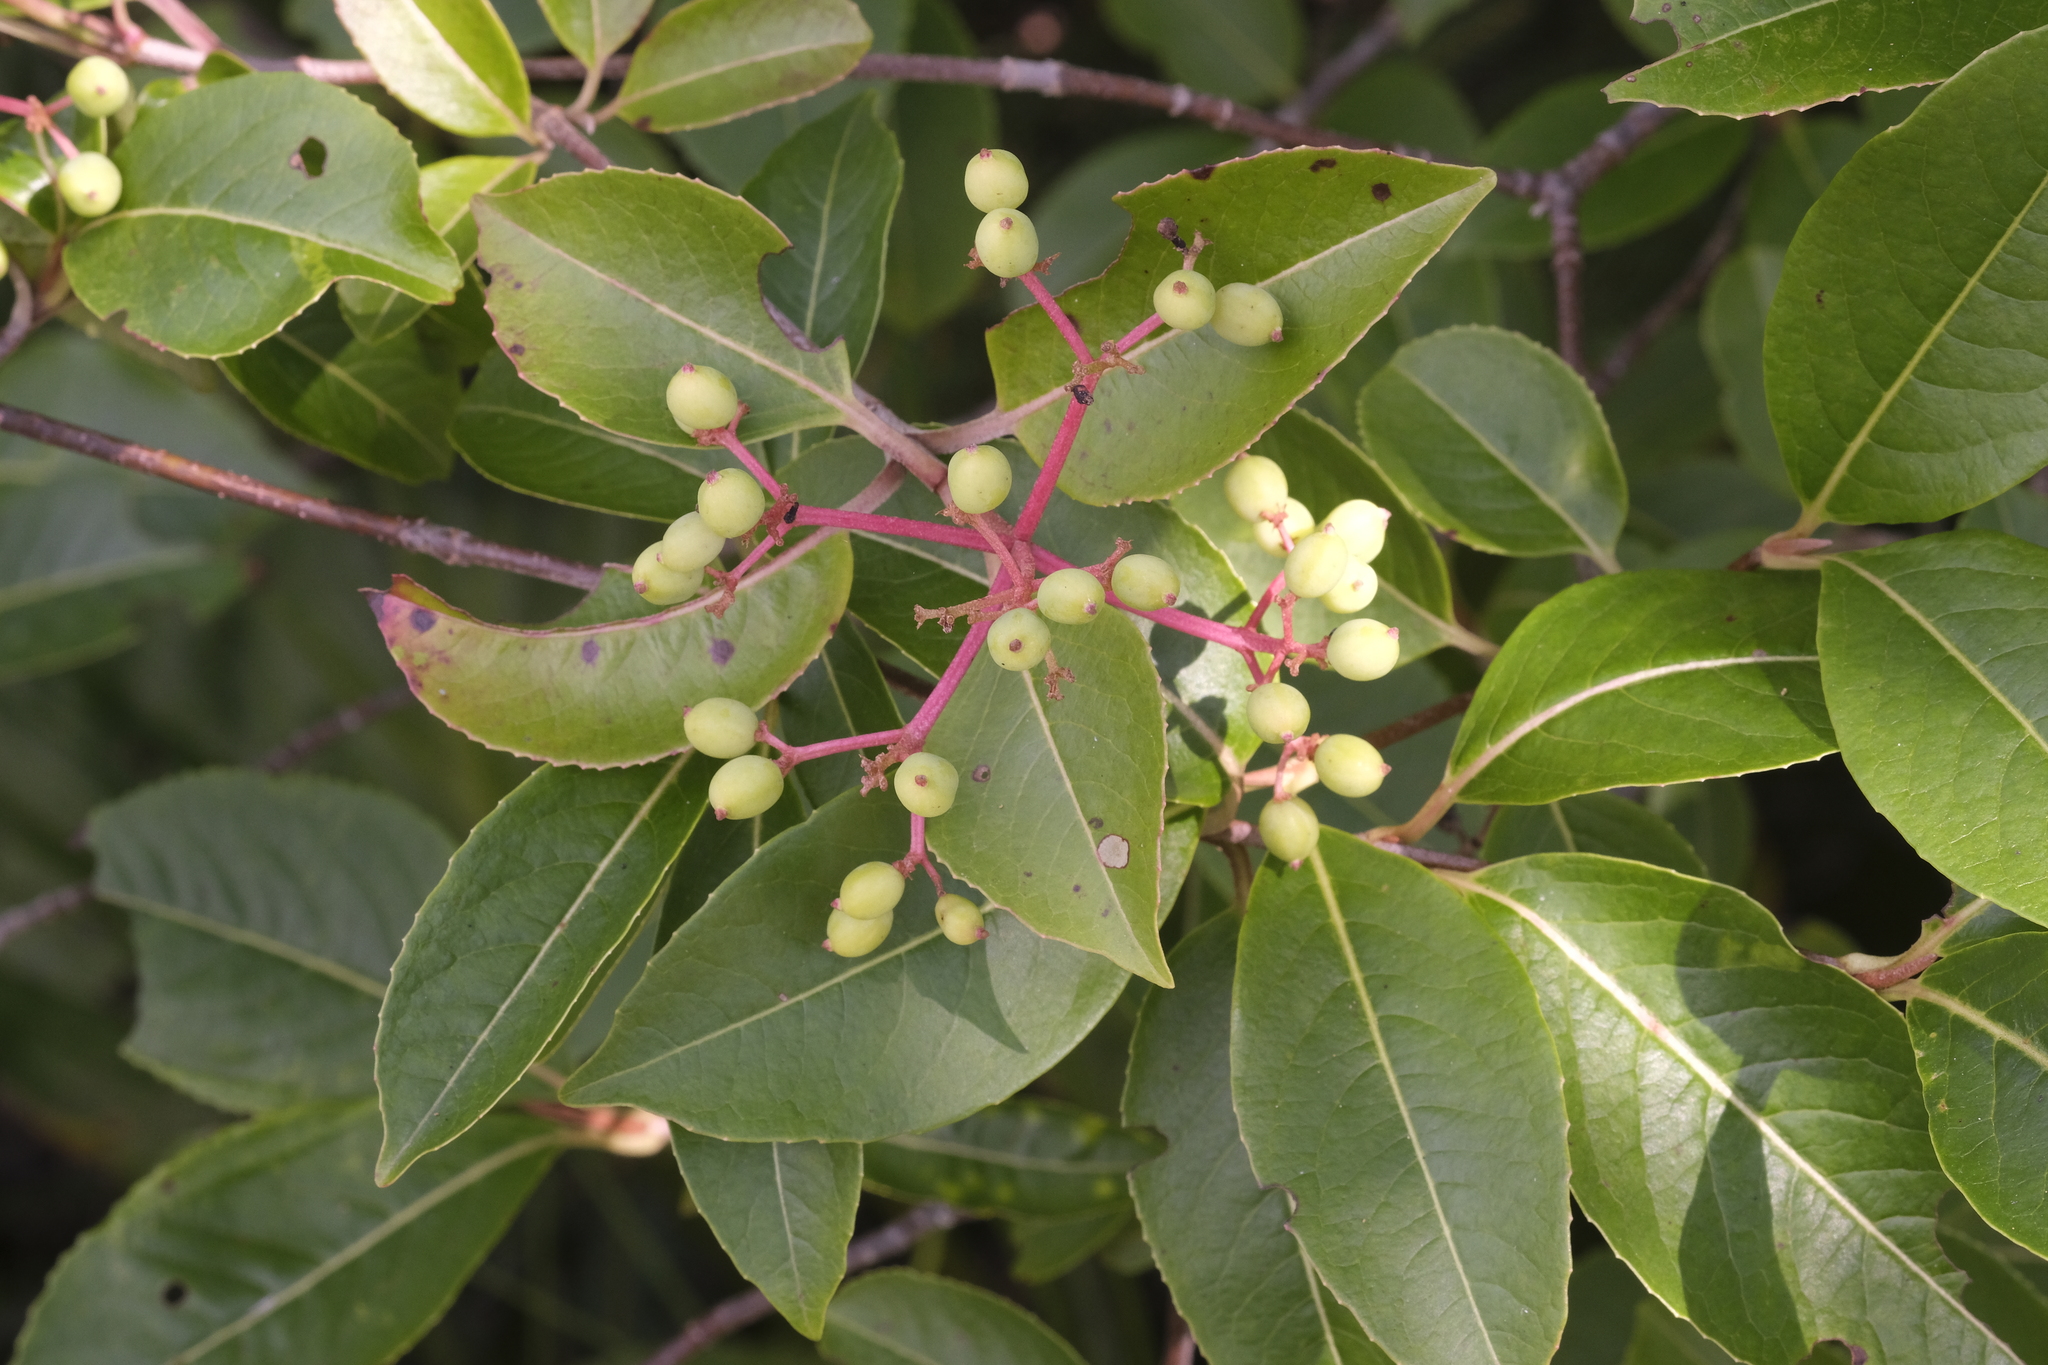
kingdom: Plantae
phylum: Tracheophyta
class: Magnoliopsida
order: Dipsacales
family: Viburnaceae
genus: Viburnum
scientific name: Viburnum cassinoides
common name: Swamp haw
